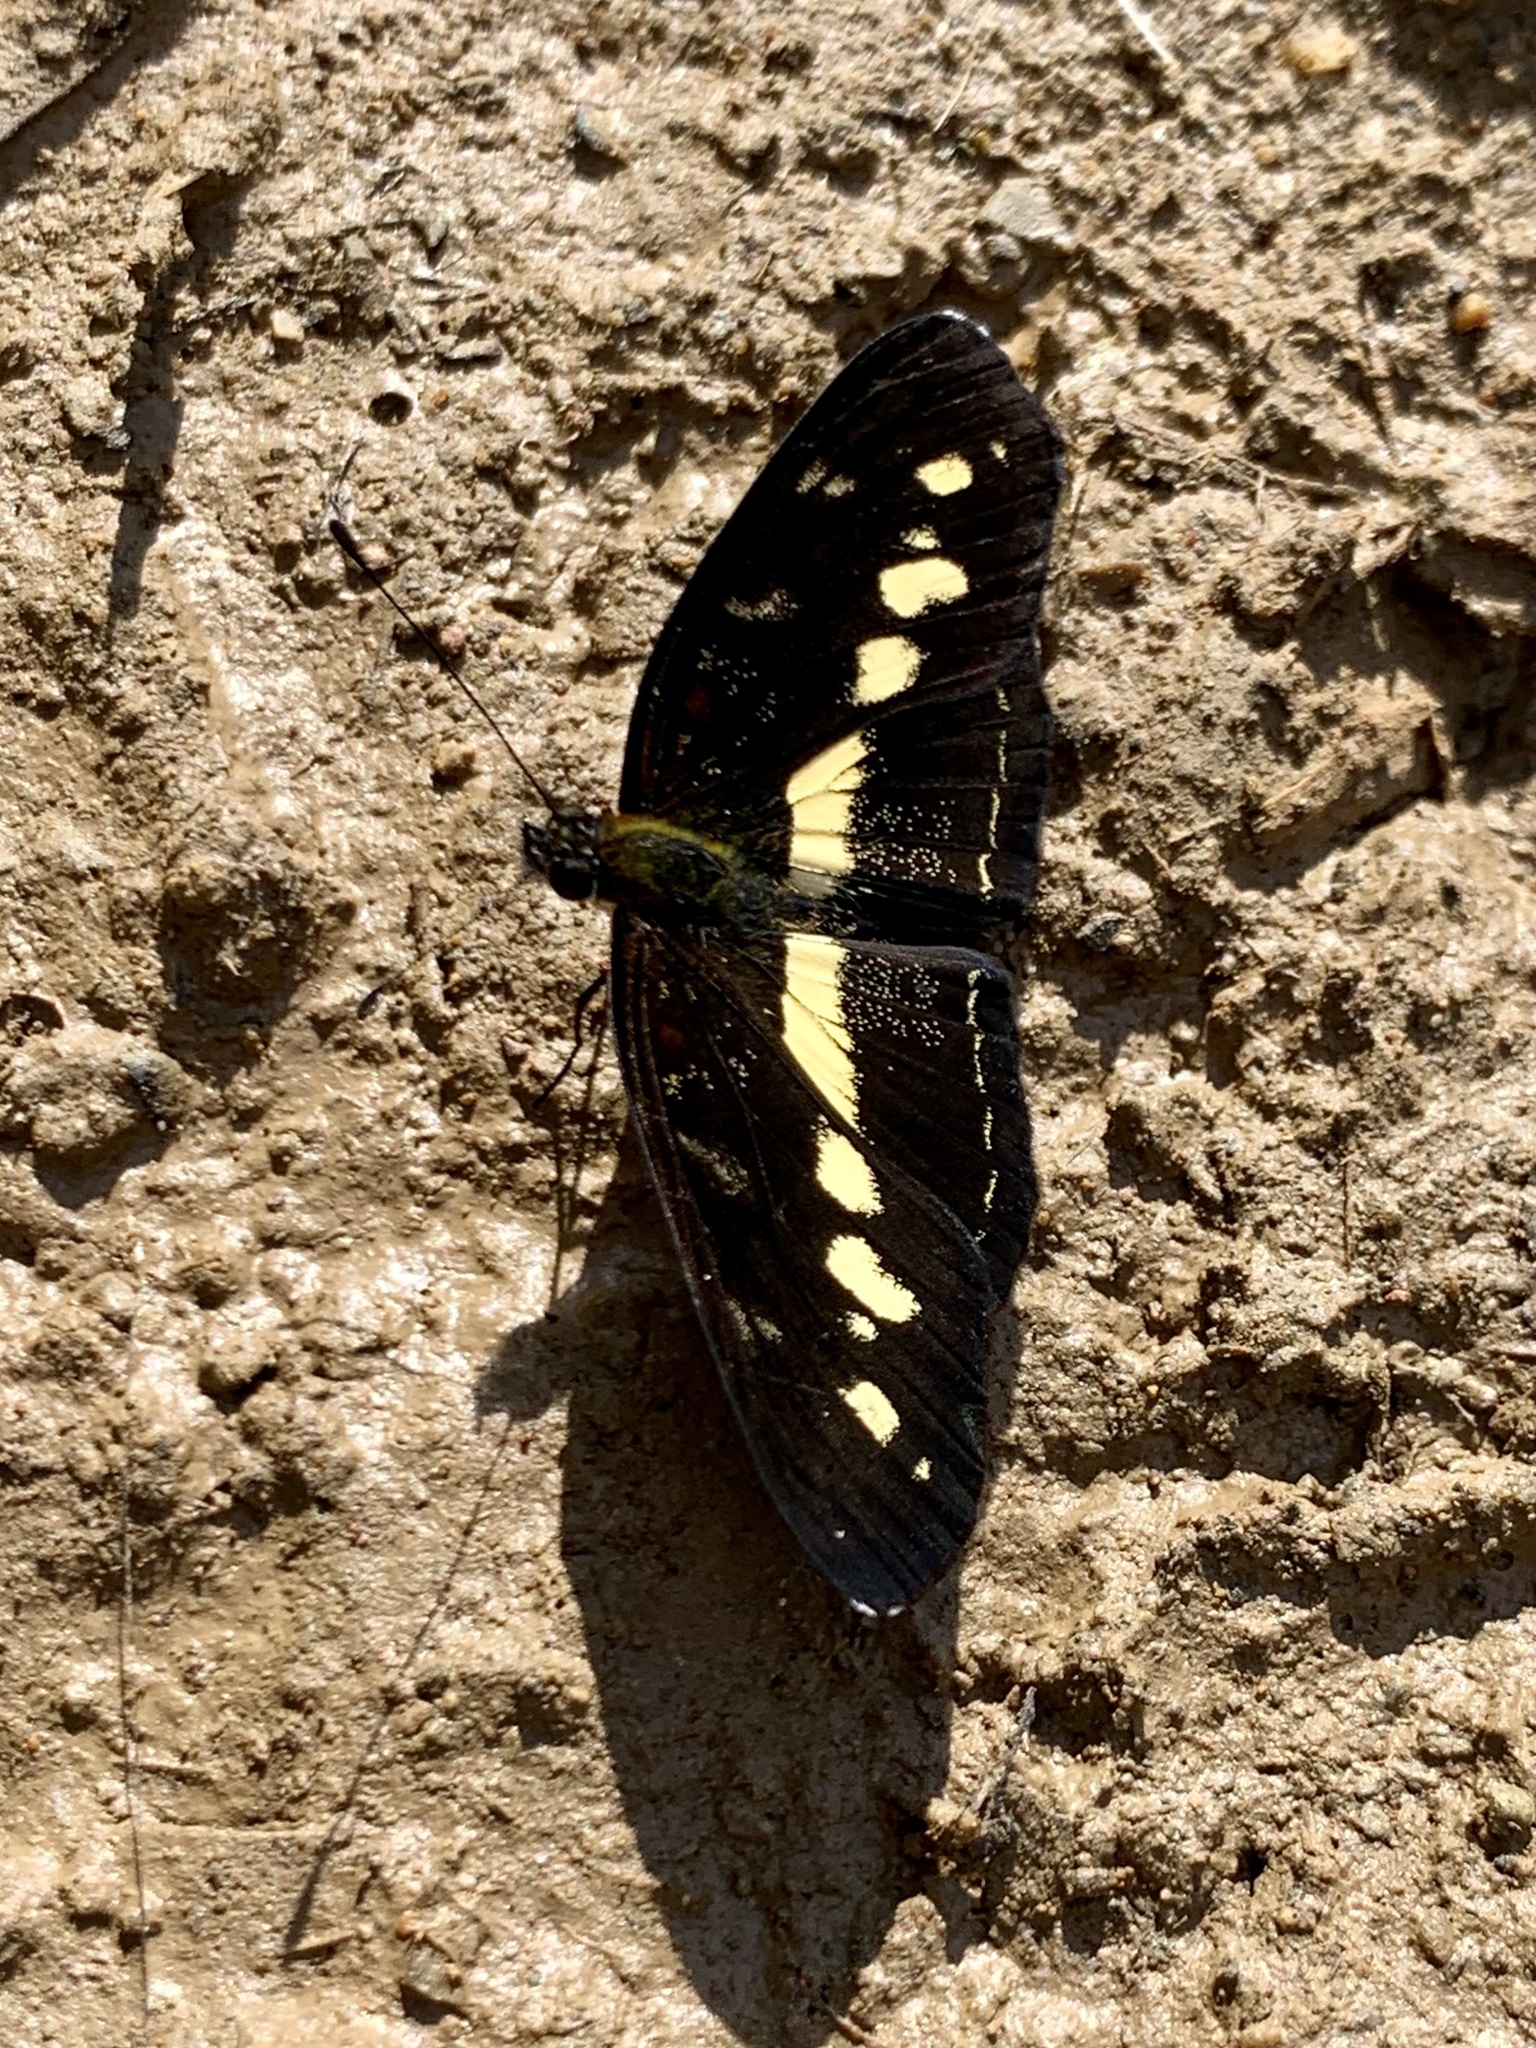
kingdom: Animalia
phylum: Arthropoda
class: Insecta
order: Lepidoptera
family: Nymphalidae
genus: Eresia
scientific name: Eresia polina
